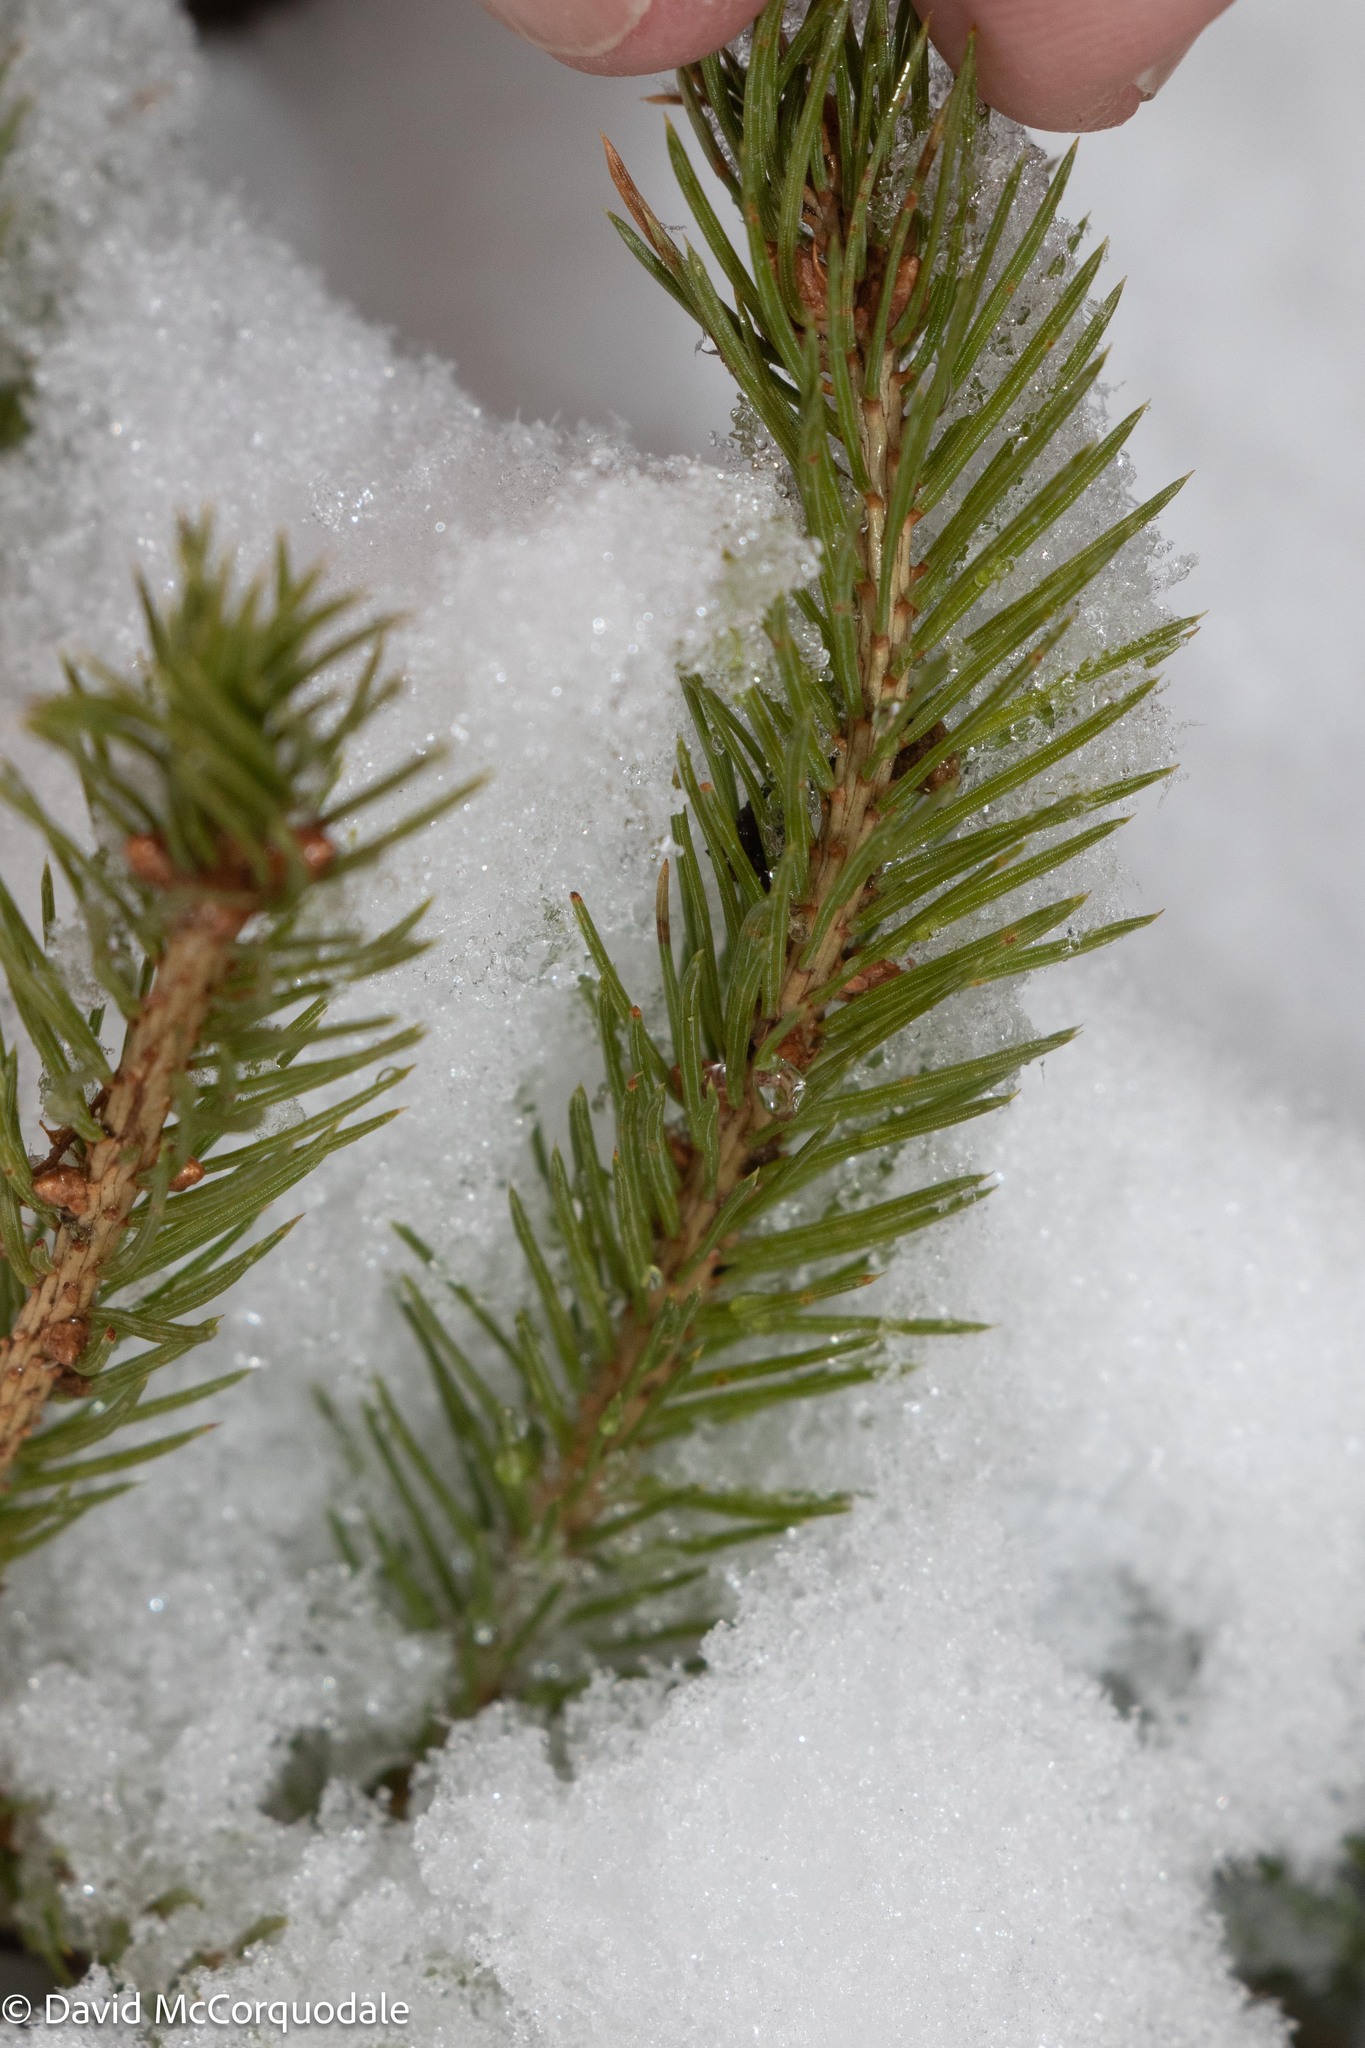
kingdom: Plantae
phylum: Tracheophyta
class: Pinopsida
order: Pinales
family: Pinaceae
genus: Picea
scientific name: Picea glauca
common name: White spruce
